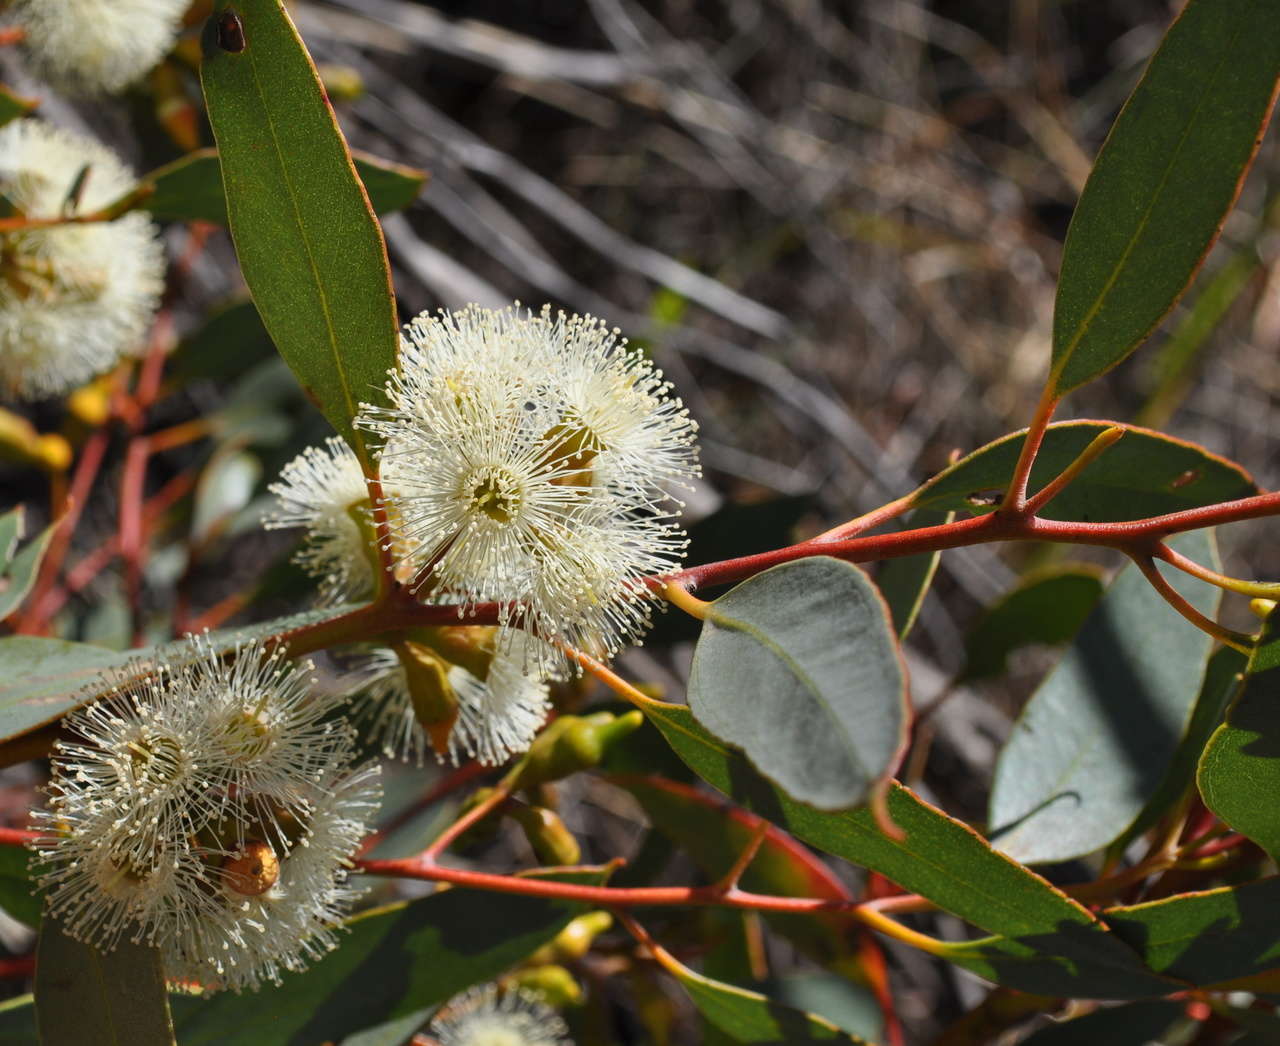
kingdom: Plantae
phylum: Tracheophyta
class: Magnoliopsida
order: Myrtales
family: Myrtaceae
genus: Eucalyptus
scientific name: Eucalyptus incrassata
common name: Ridge-fruit mallee
